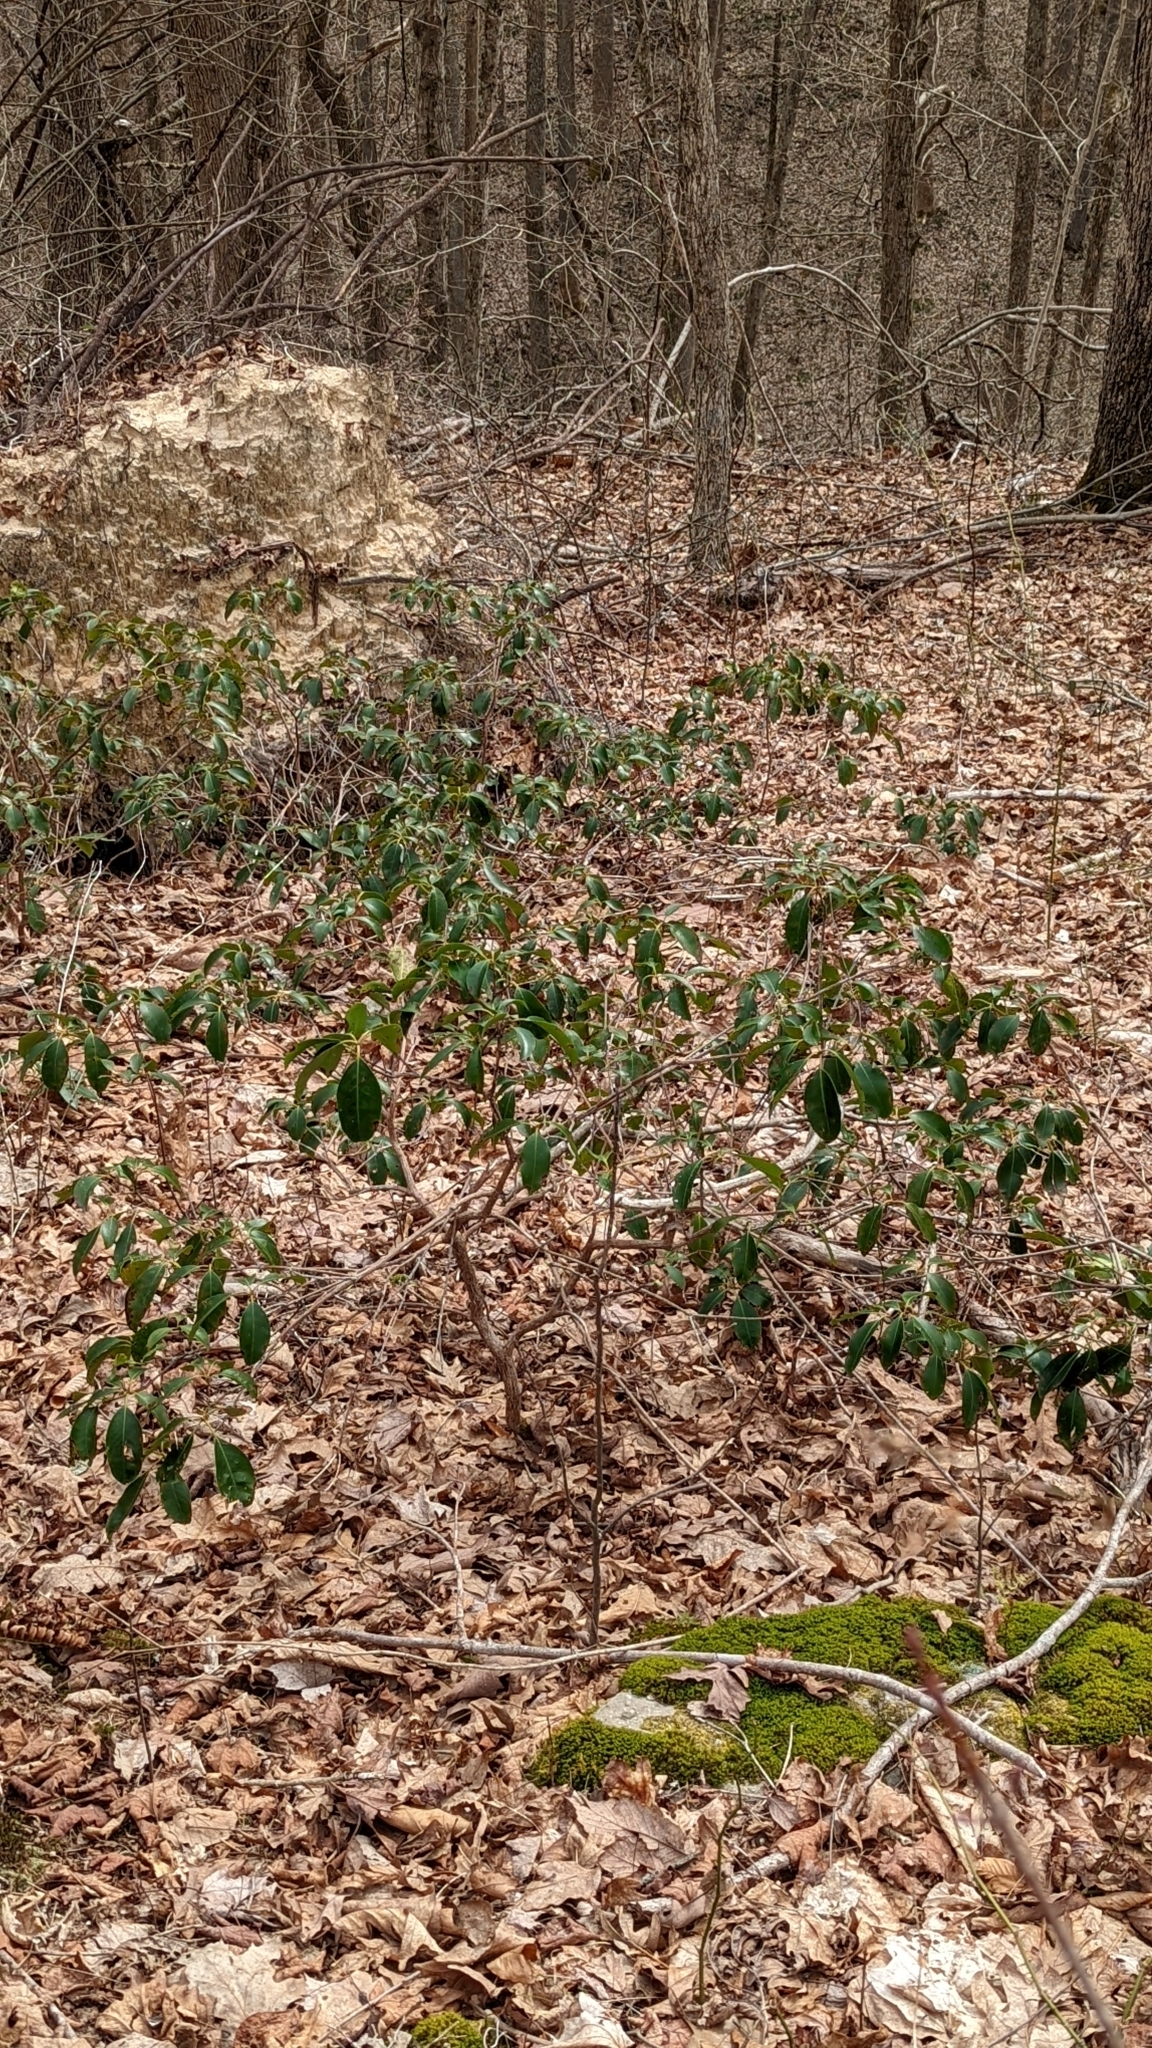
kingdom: Plantae
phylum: Tracheophyta
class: Magnoliopsida
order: Ericales
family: Ericaceae
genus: Kalmia
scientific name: Kalmia latifolia
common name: Mountain-laurel
